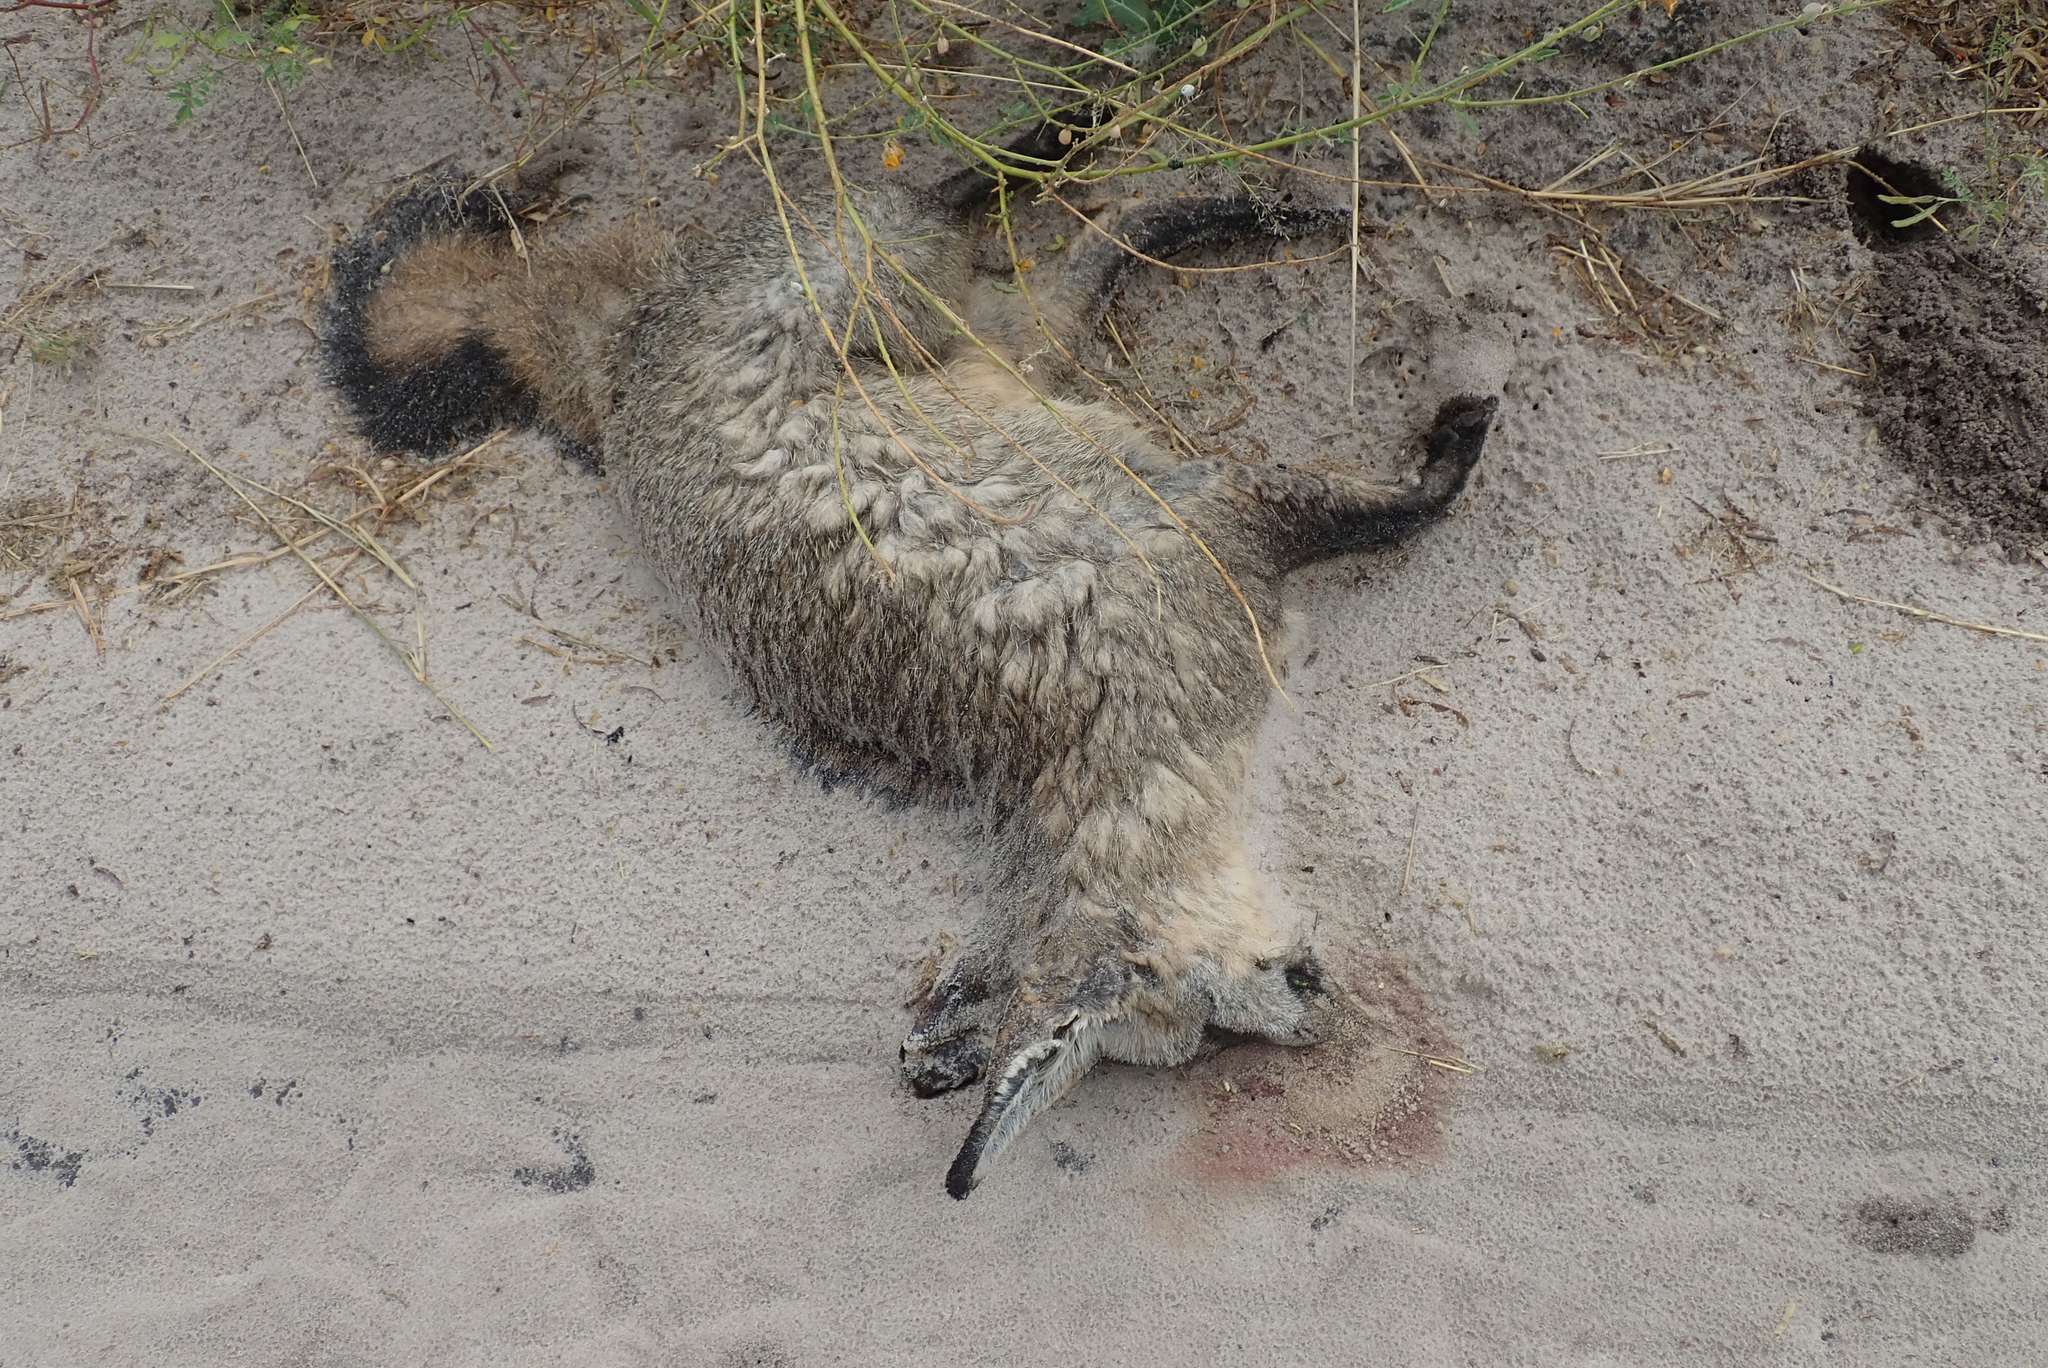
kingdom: Animalia
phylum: Chordata
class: Mammalia
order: Carnivora
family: Canidae
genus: Otocyon
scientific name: Otocyon megalotis
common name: Bat-eared fox
